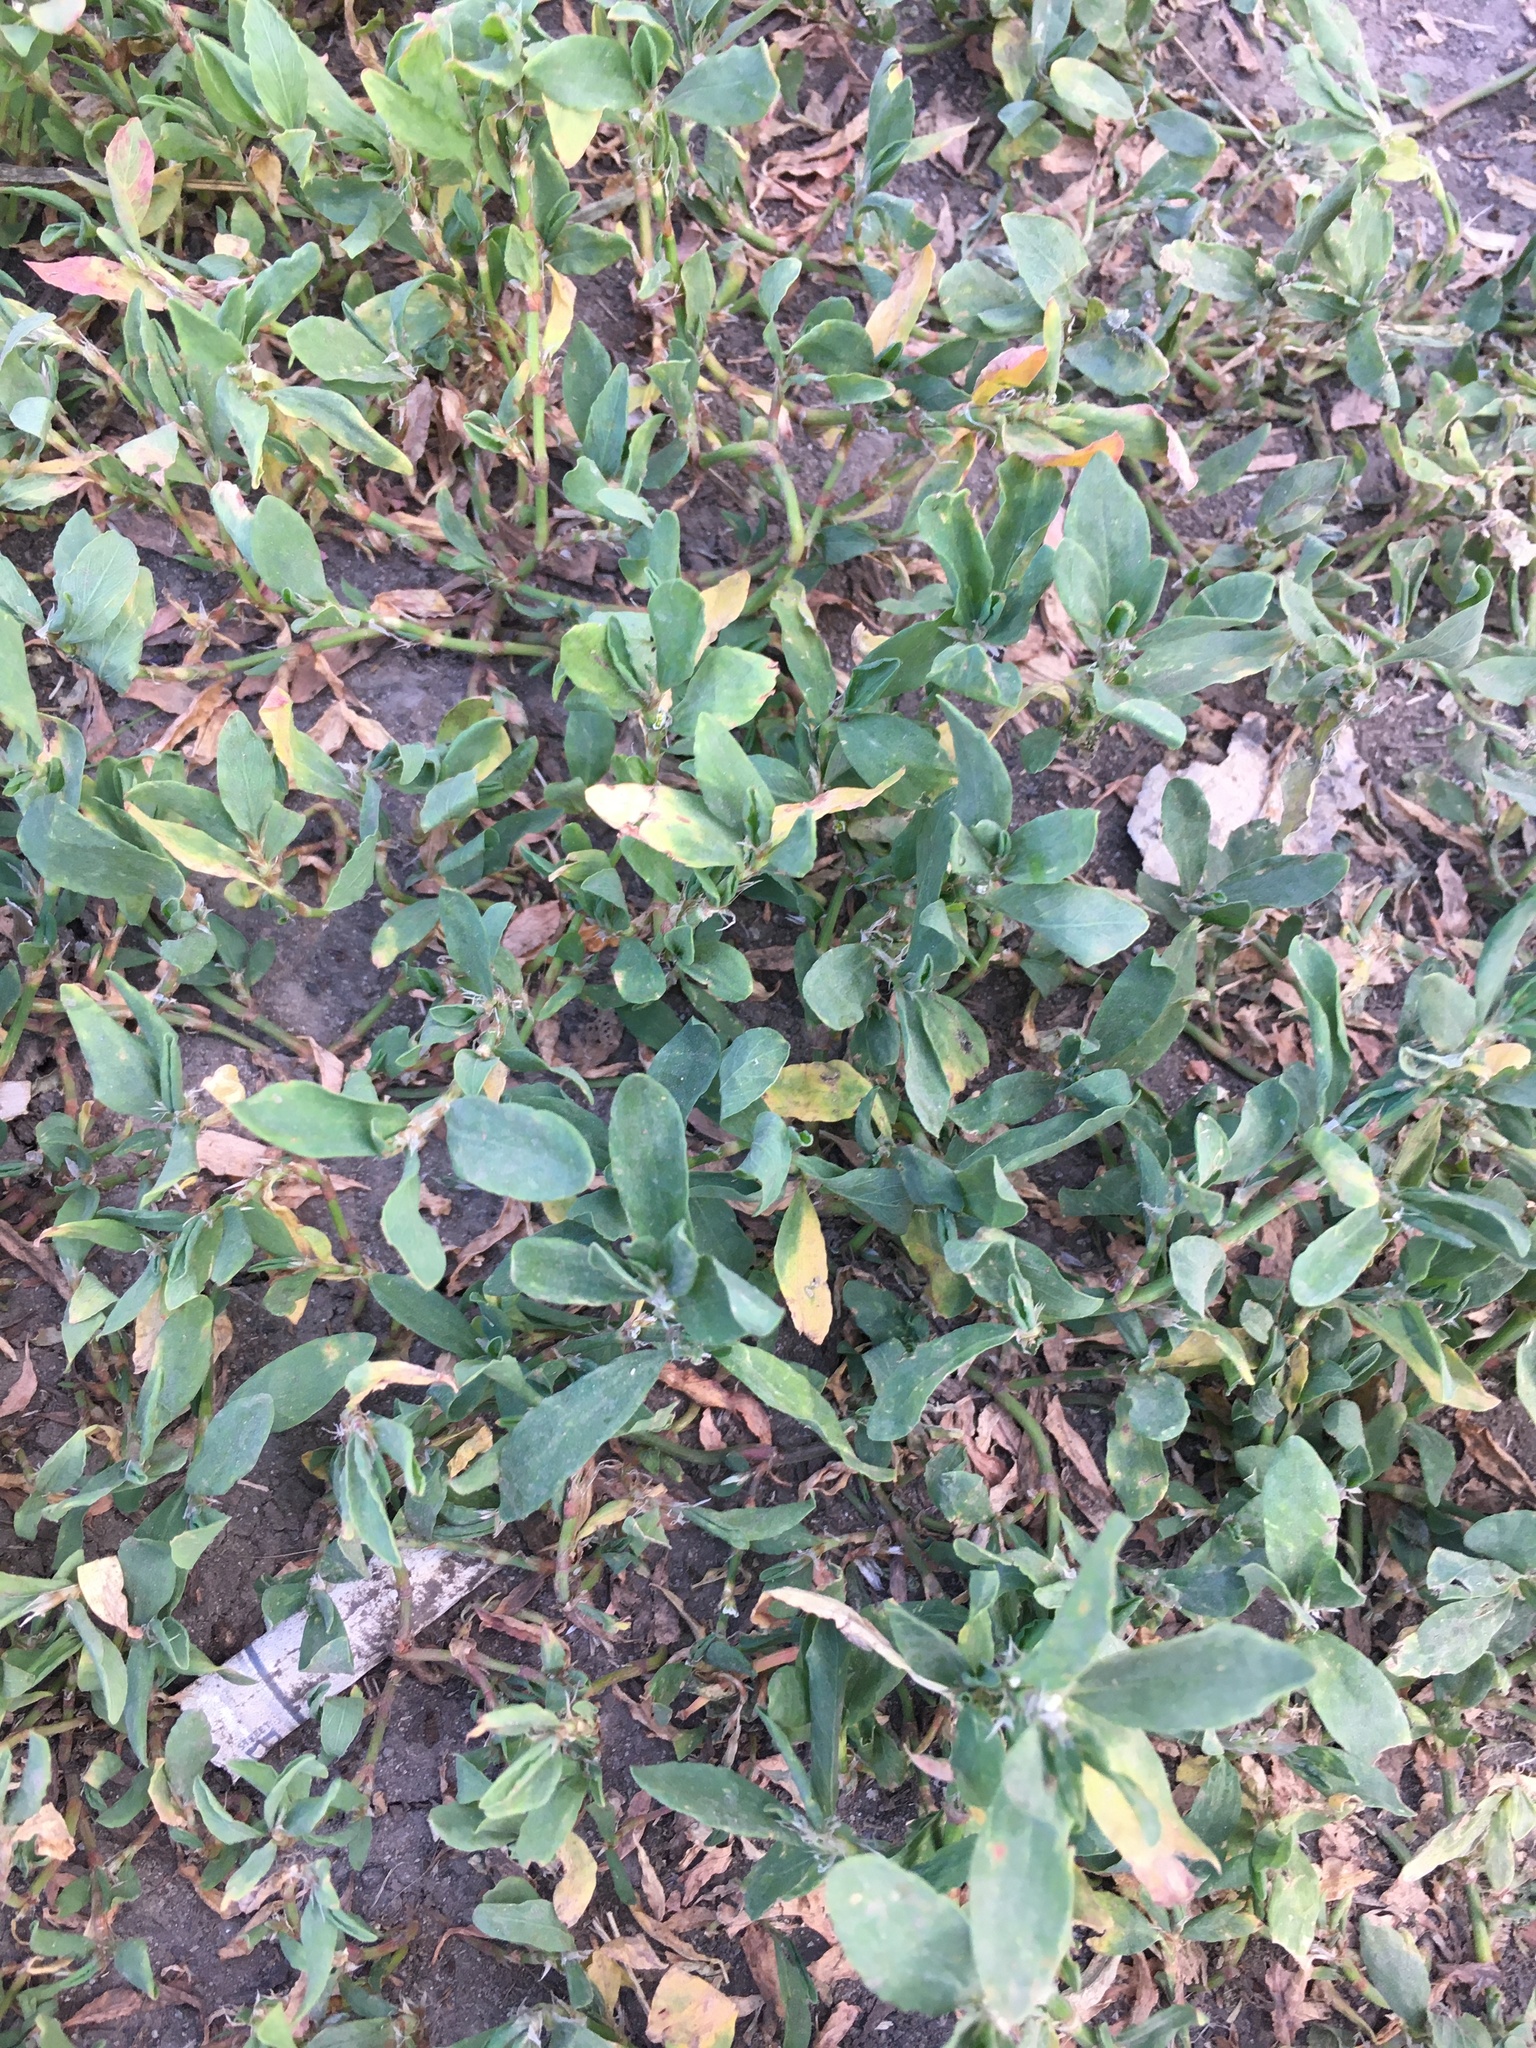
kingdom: Plantae
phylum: Tracheophyta
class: Magnoliopsida
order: Caryophyllales
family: Polygonaceae
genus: Polygonum
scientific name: Polygonum
